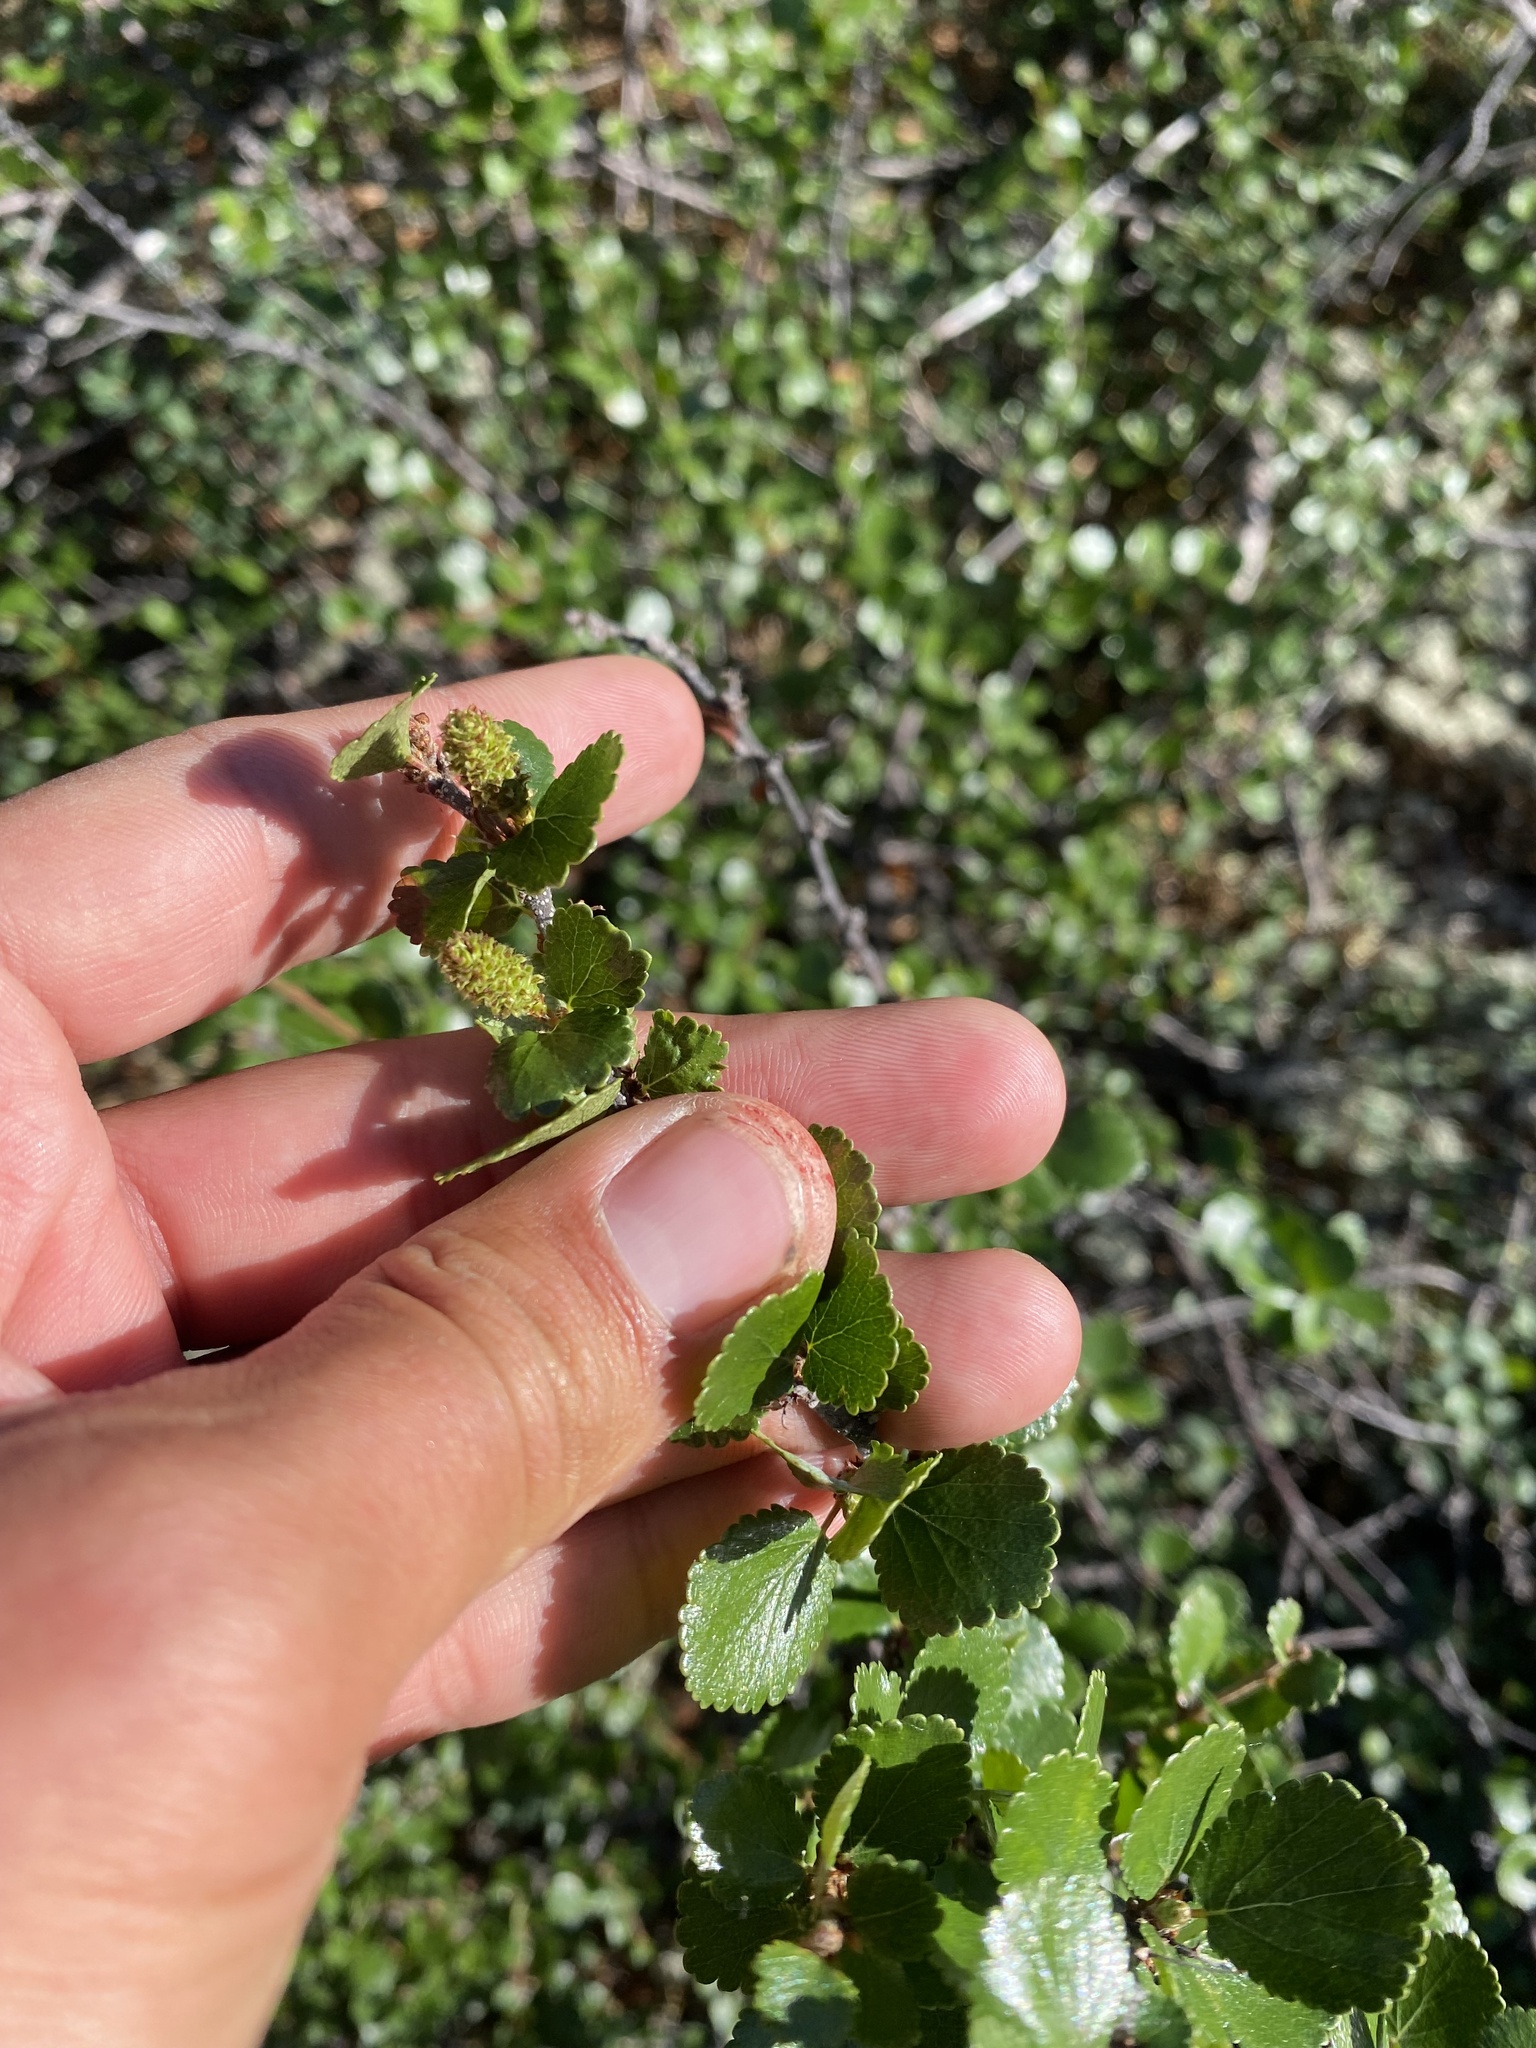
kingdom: Plantae
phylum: Tracheophyta
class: Magnoliopsida
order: Fagales
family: Betulaceae
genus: Betula
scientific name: Betula nana
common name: Arctic dwarf birch
